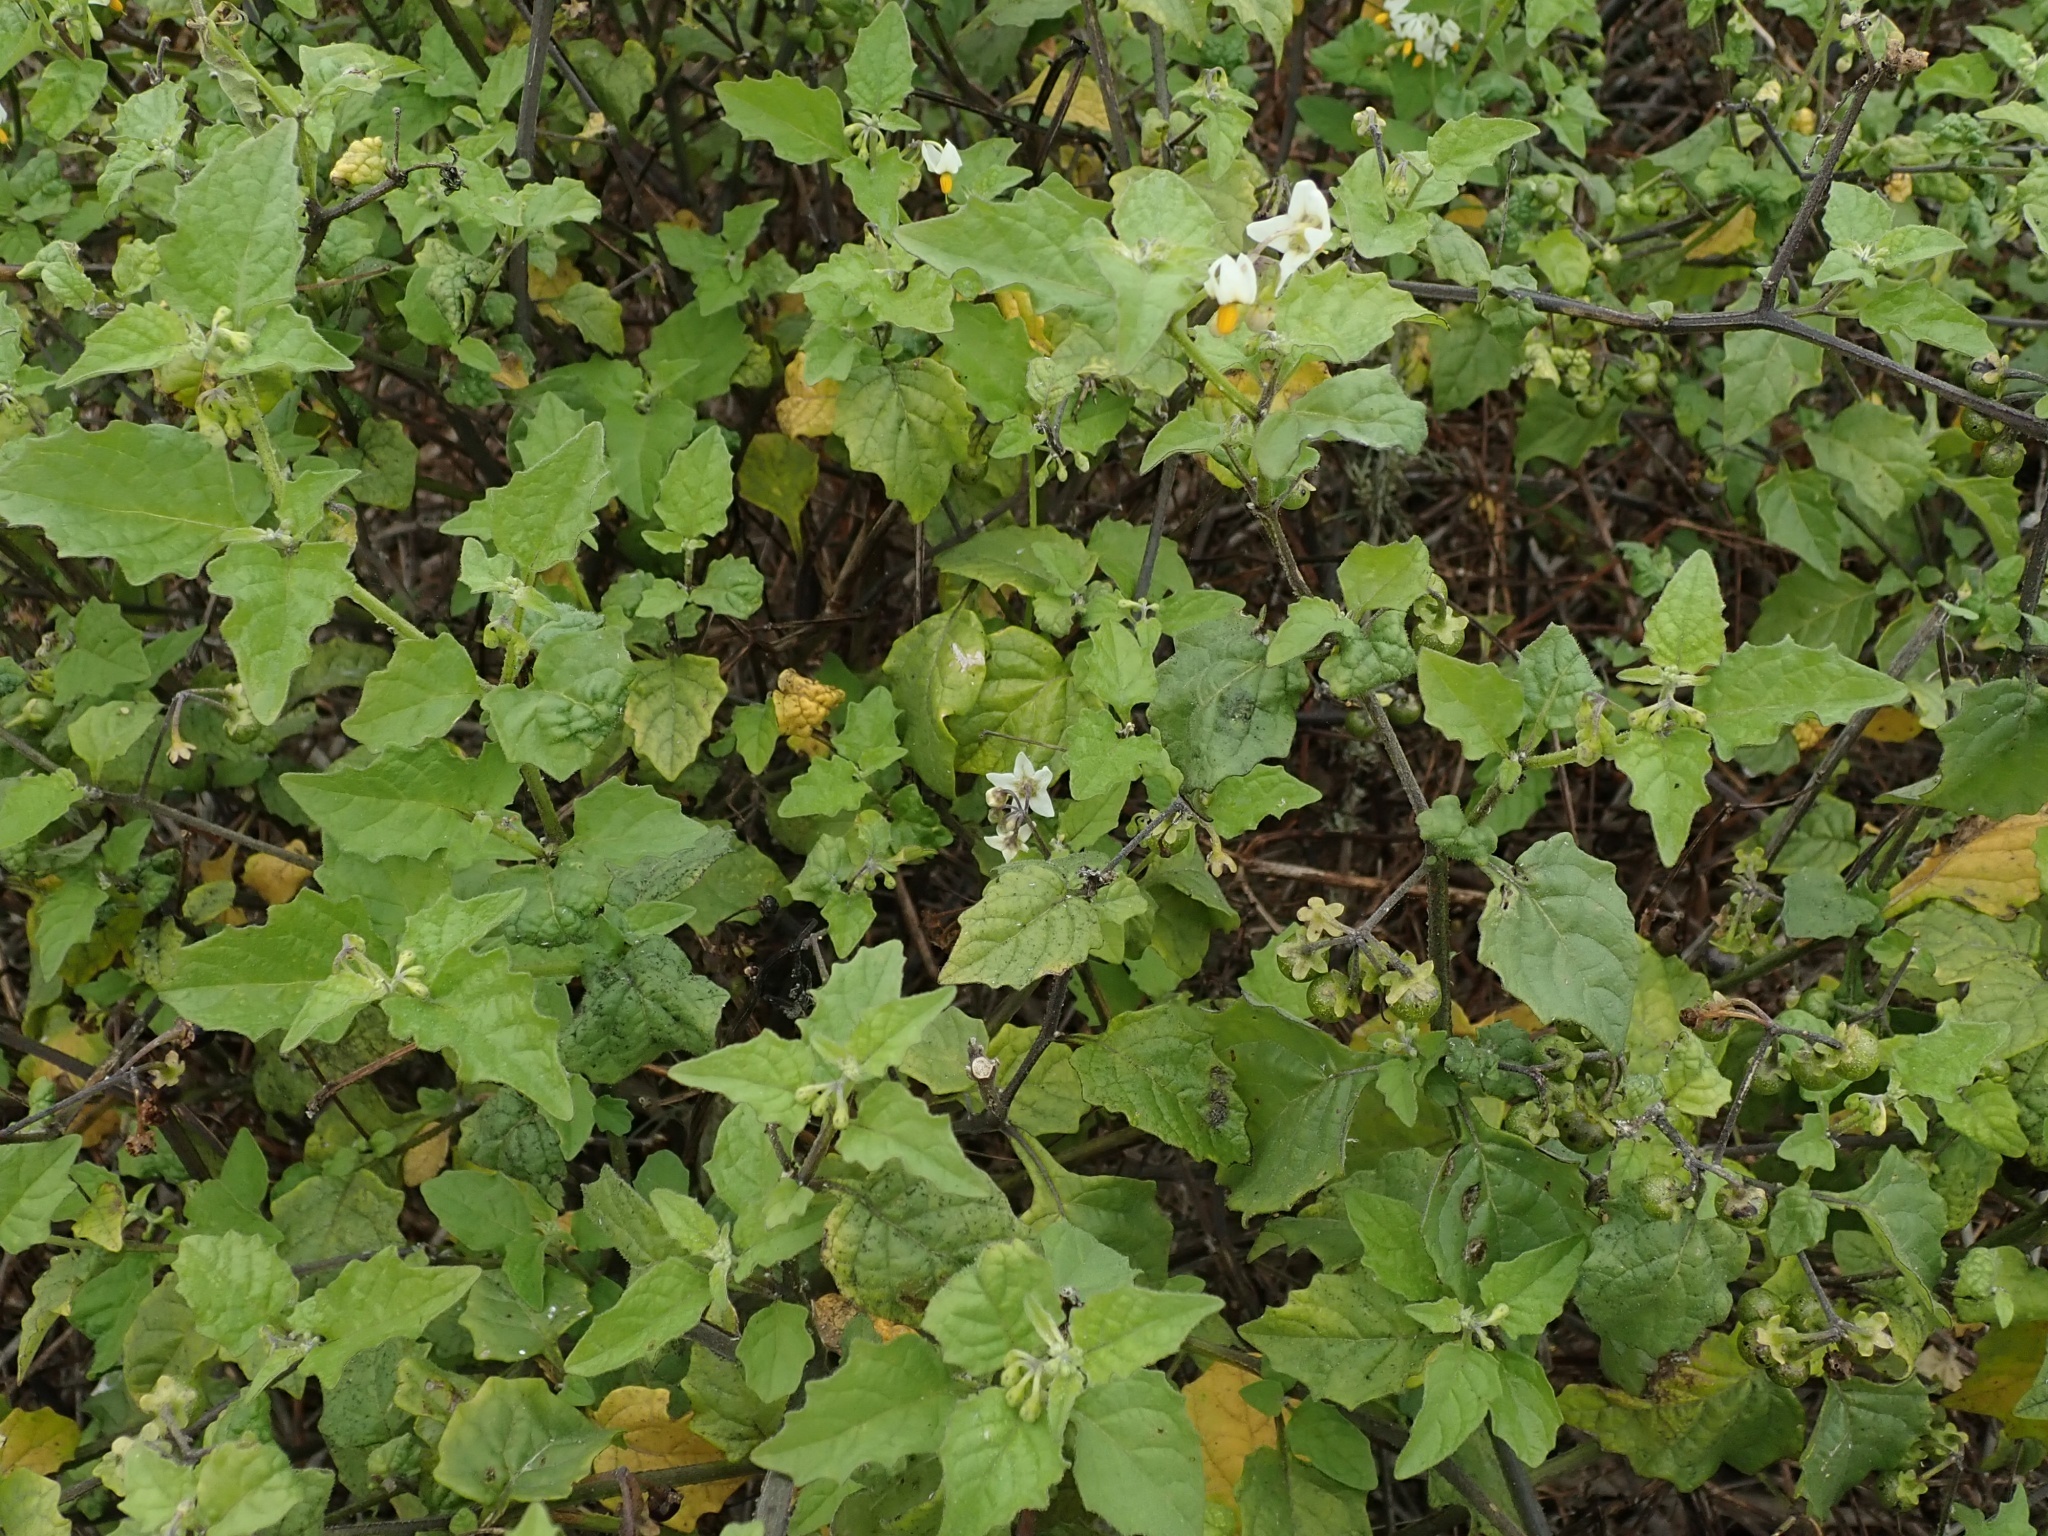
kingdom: Plantae
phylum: Tracheophyta
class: Magnoliopsida
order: Solanales
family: Solanaceae
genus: Solanum
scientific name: Solanum douglasii
